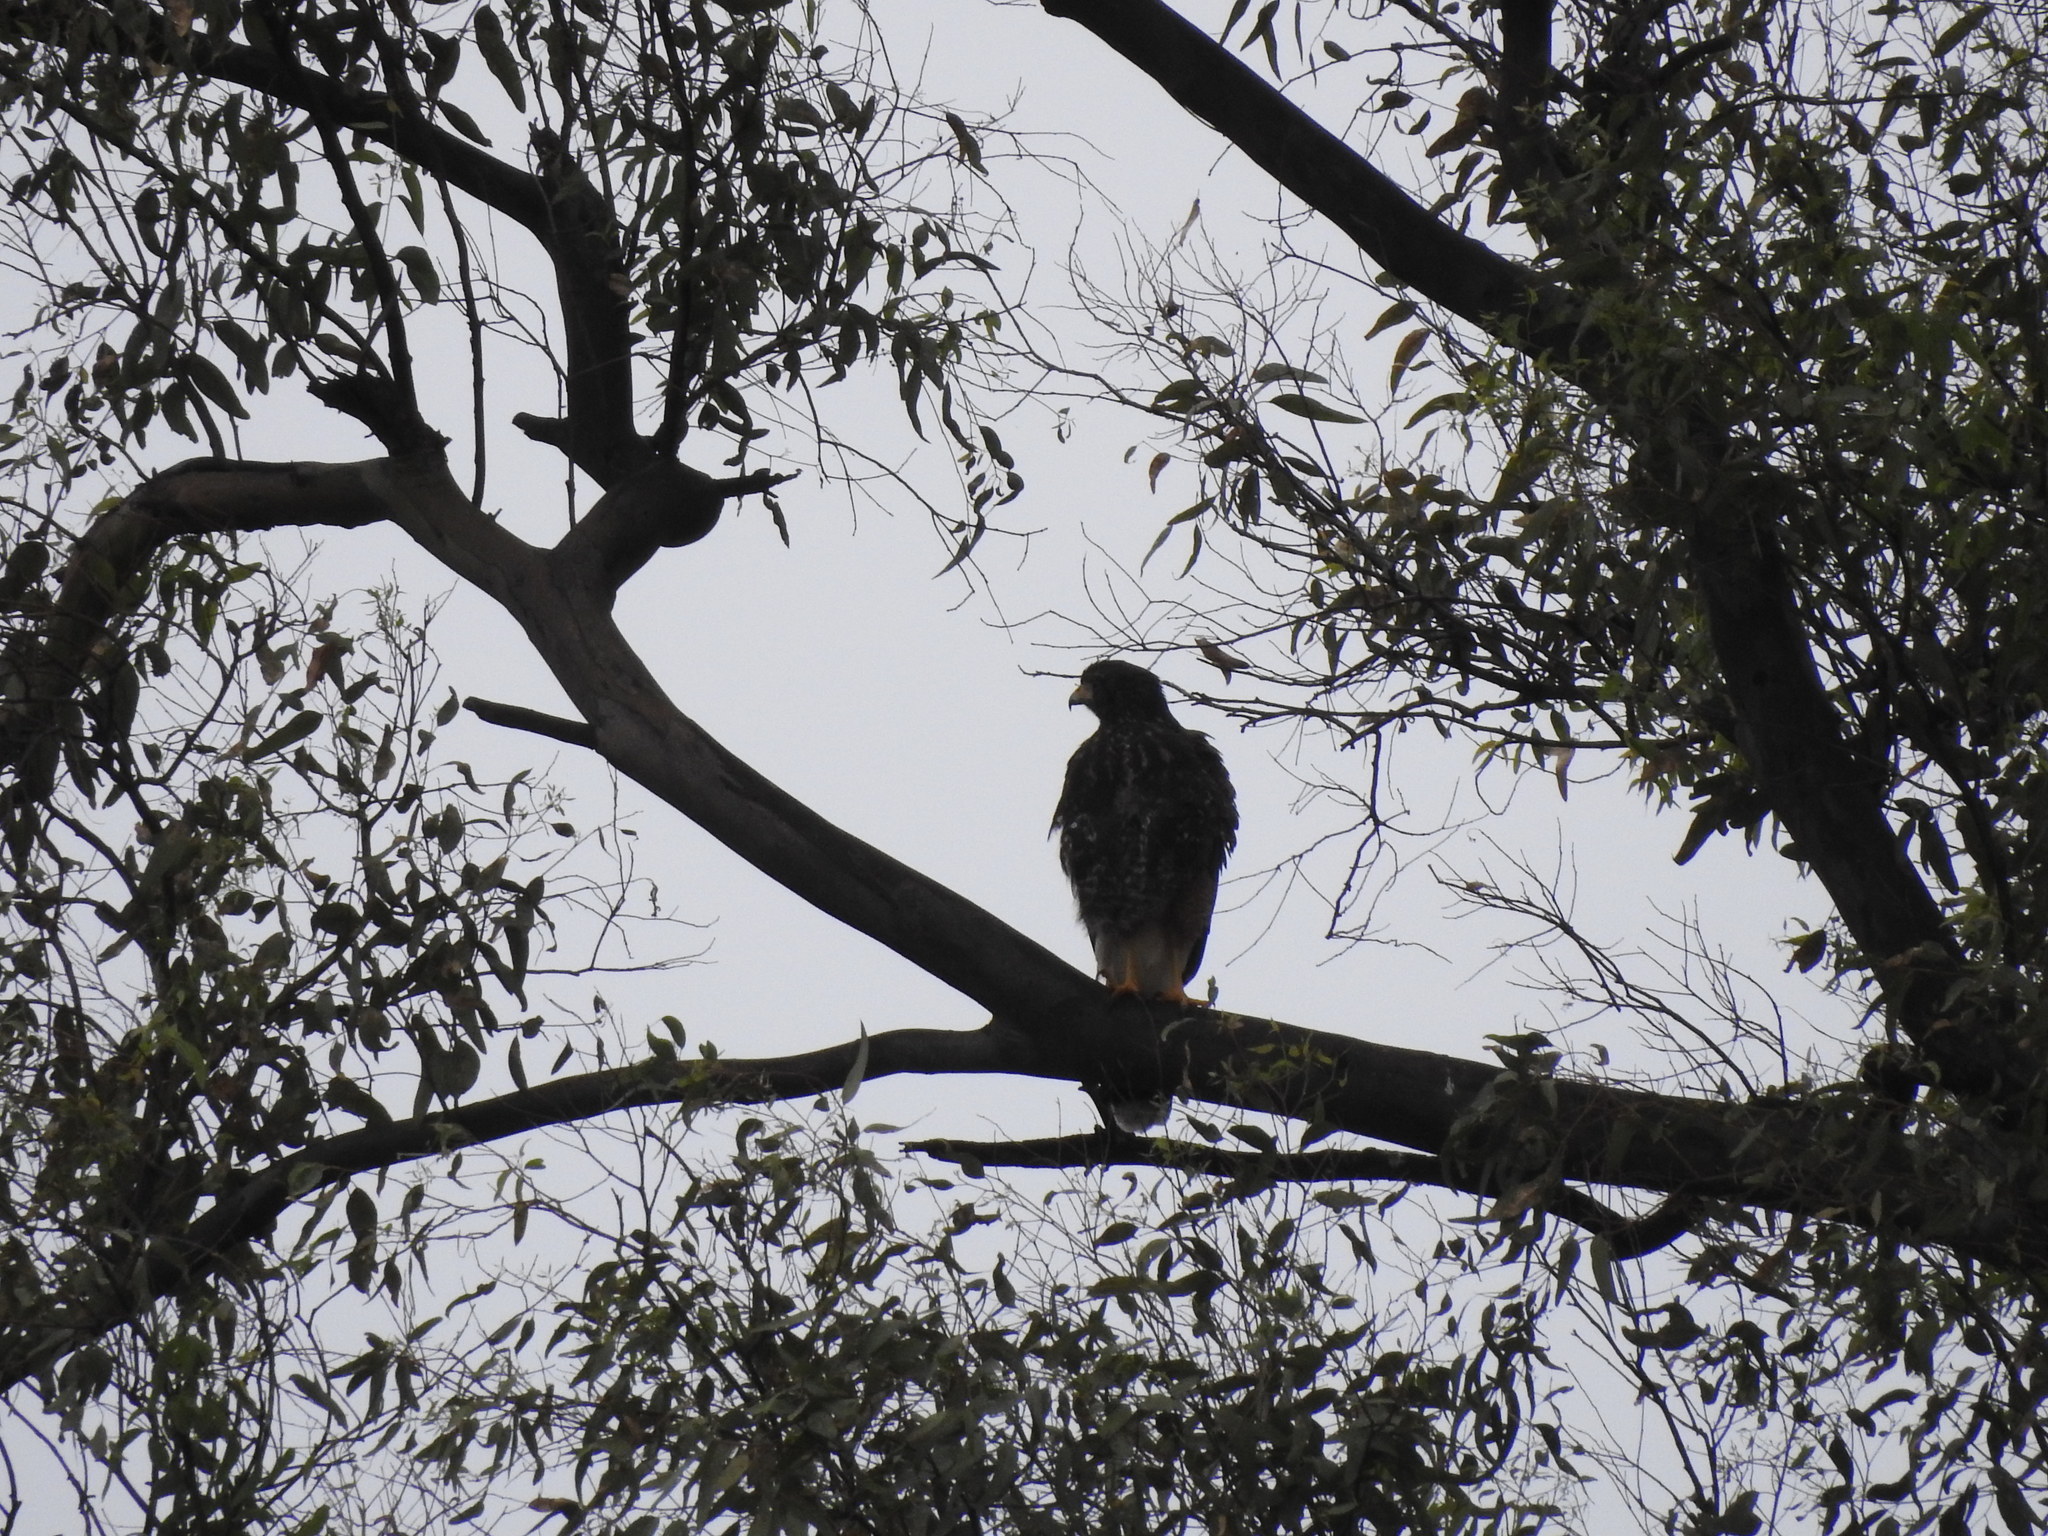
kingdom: Animalia
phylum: Chordata
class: Aves
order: Accipitriformes
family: Accipitridae
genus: Parabuteo
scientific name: Parabuteo unicinctus
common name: Harris's hawk
